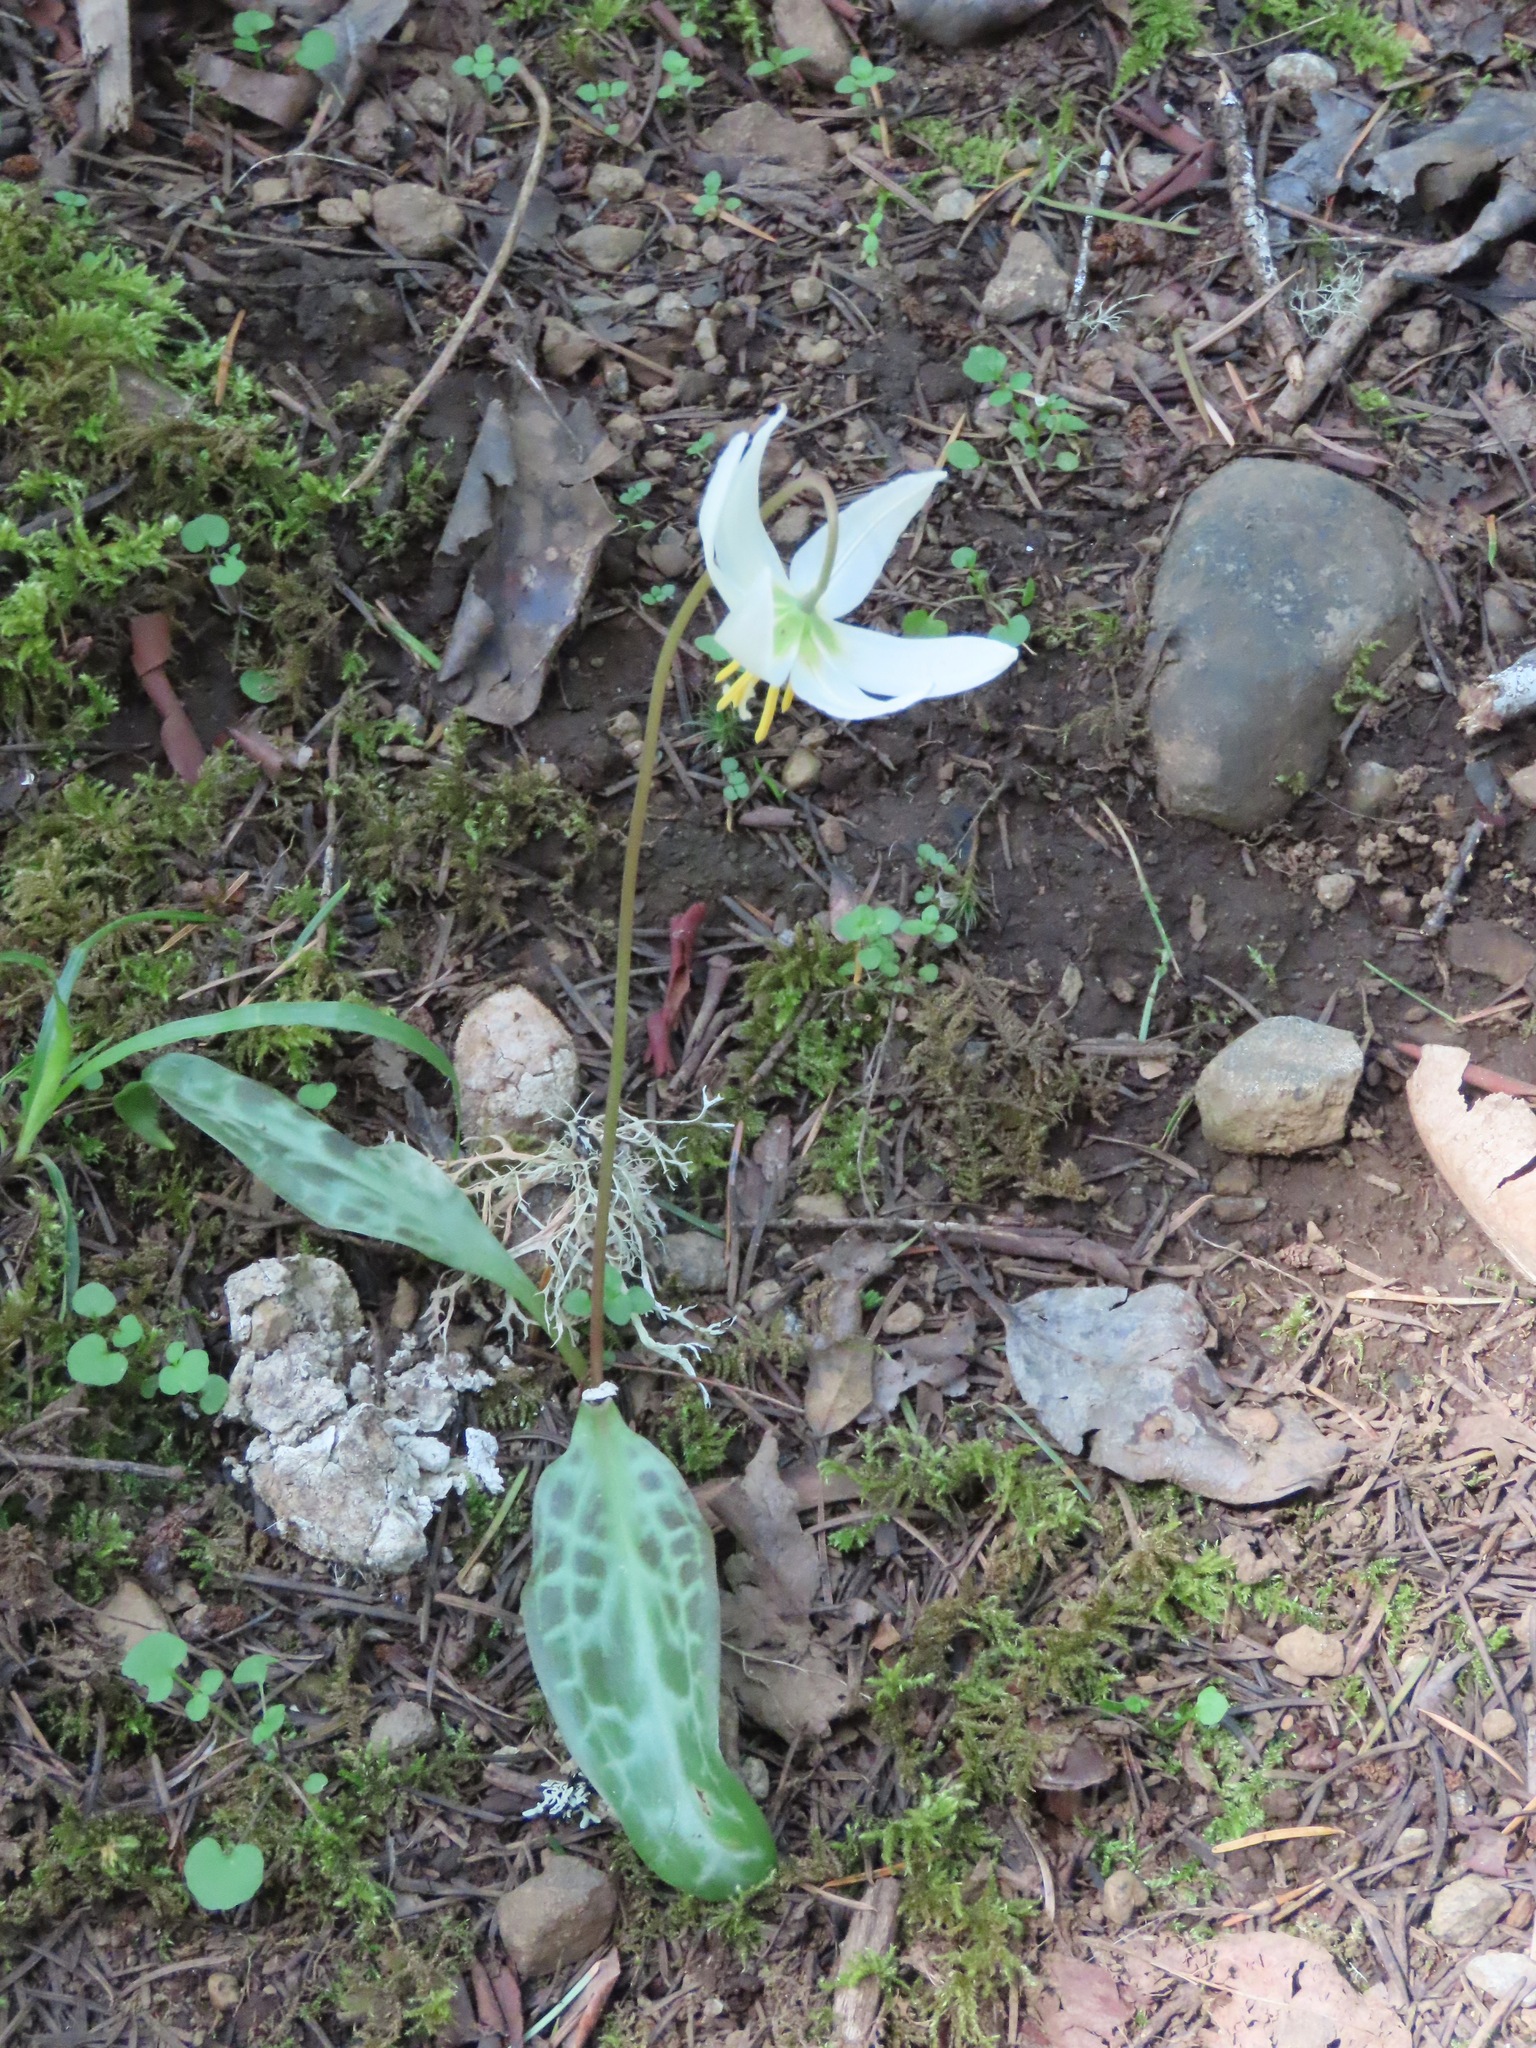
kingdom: Plantae
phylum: Tracheophyta
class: Liliopsida
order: Liliales
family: Liliaceae
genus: Erythronium
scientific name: Erythronium oregonum
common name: Giant adder's-tongue
